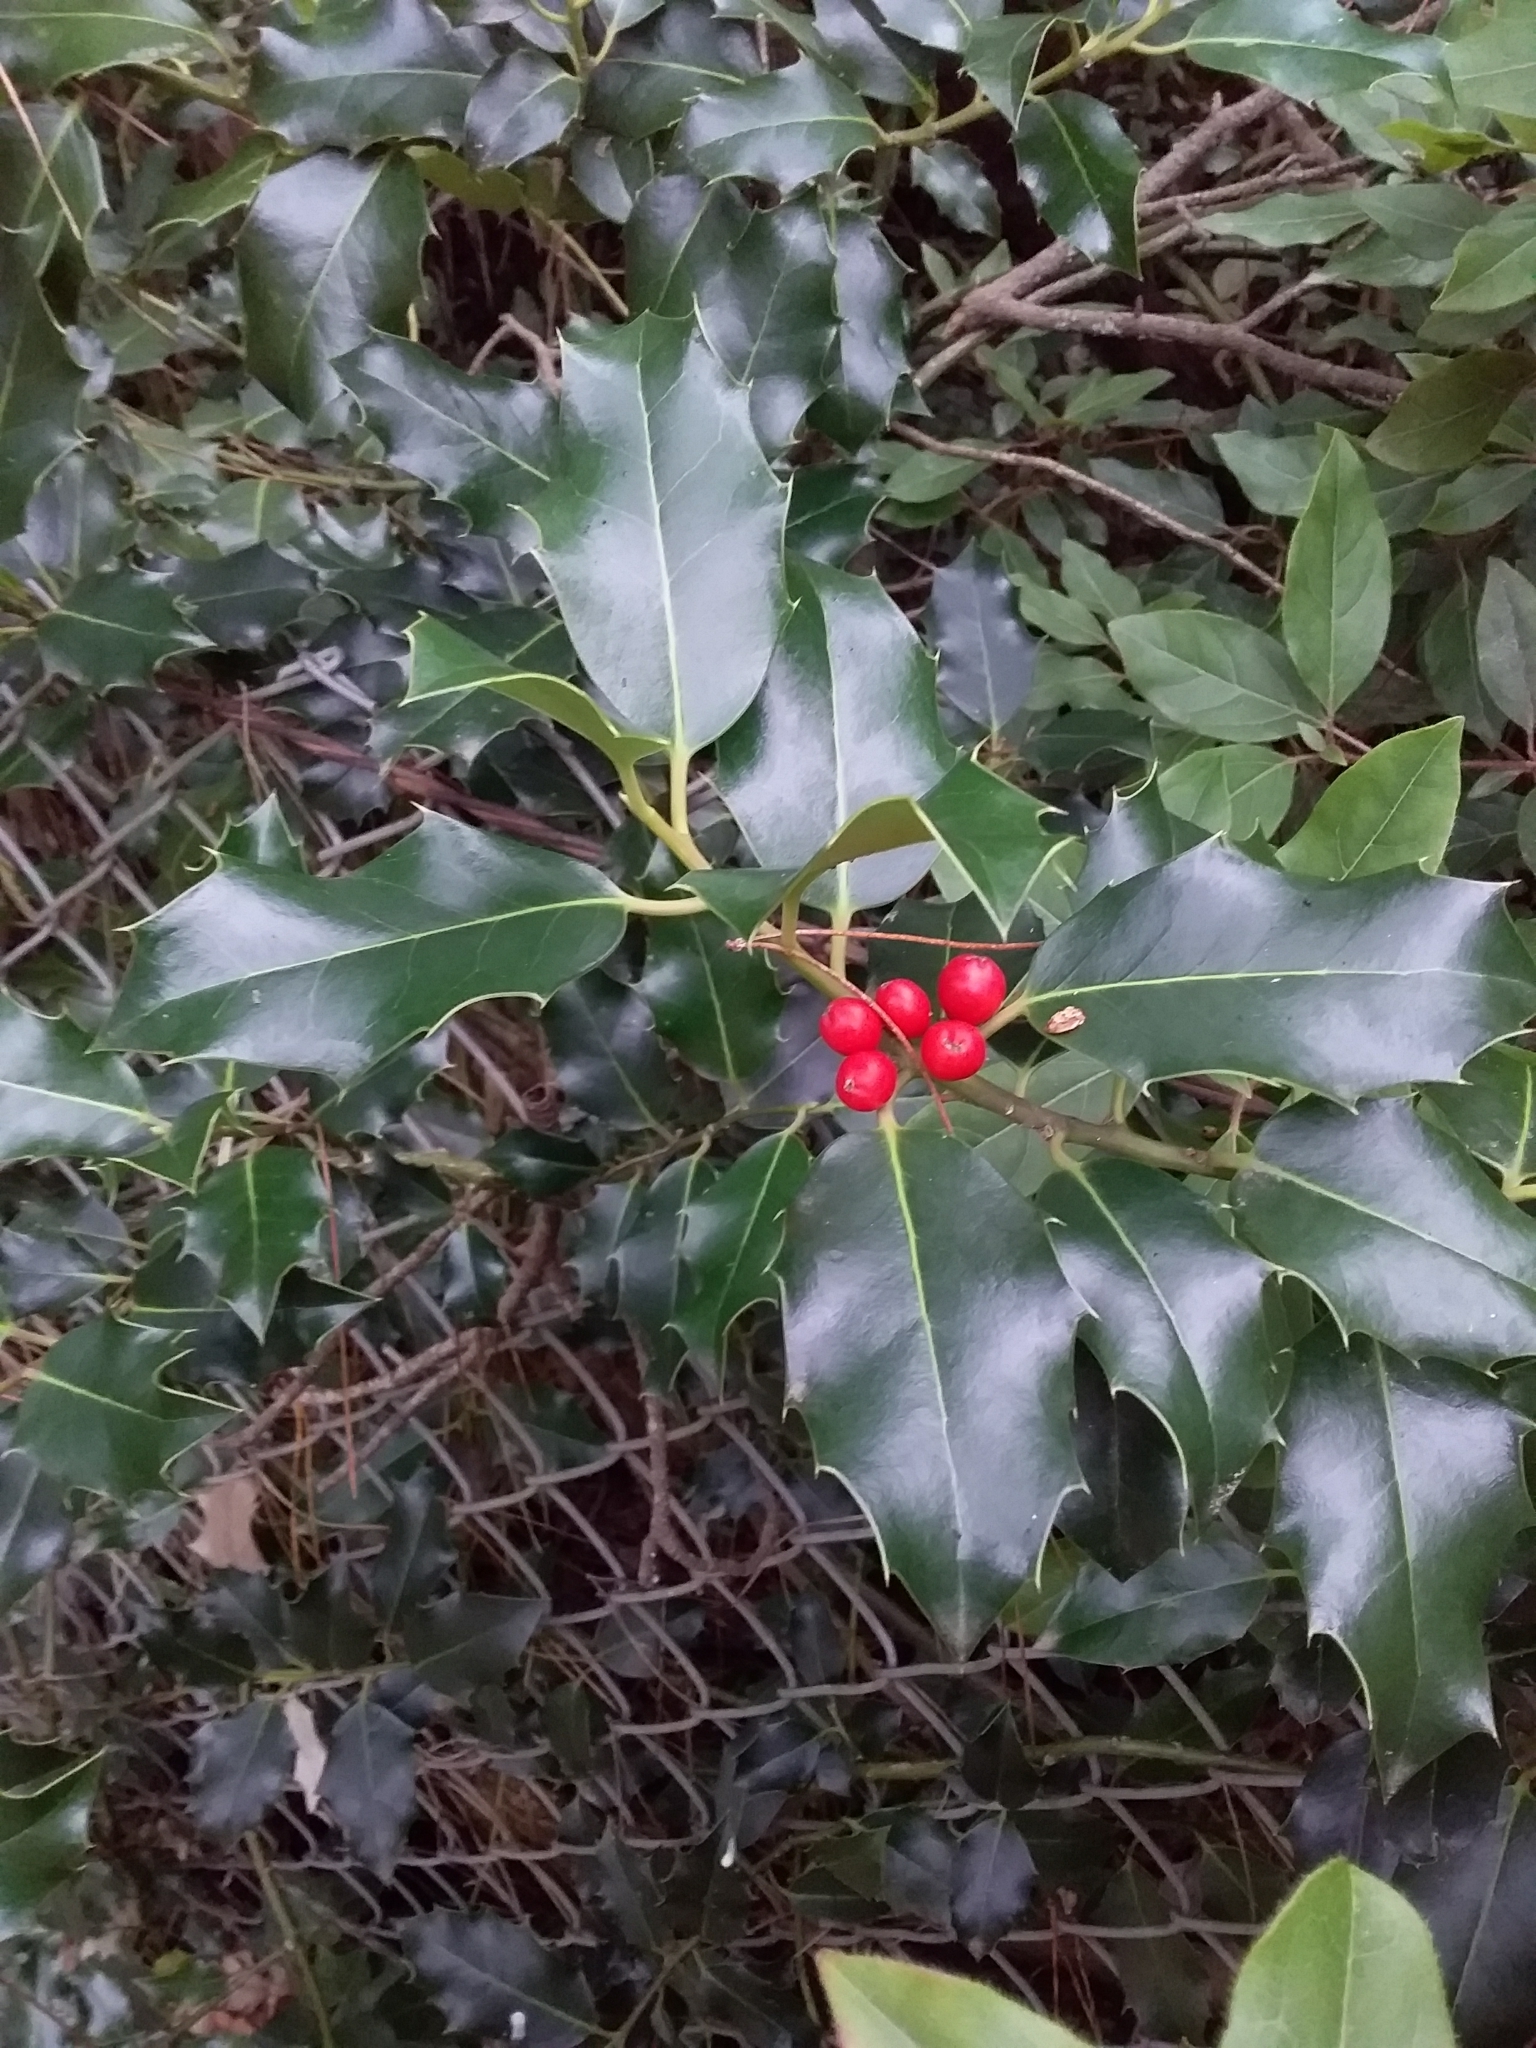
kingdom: Plantae
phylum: Tracheophyta
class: Magnoliopsida
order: Aquifoliales
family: Aquifoliaceae
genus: Ilex
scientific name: Ilex aquifolium
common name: English holly
